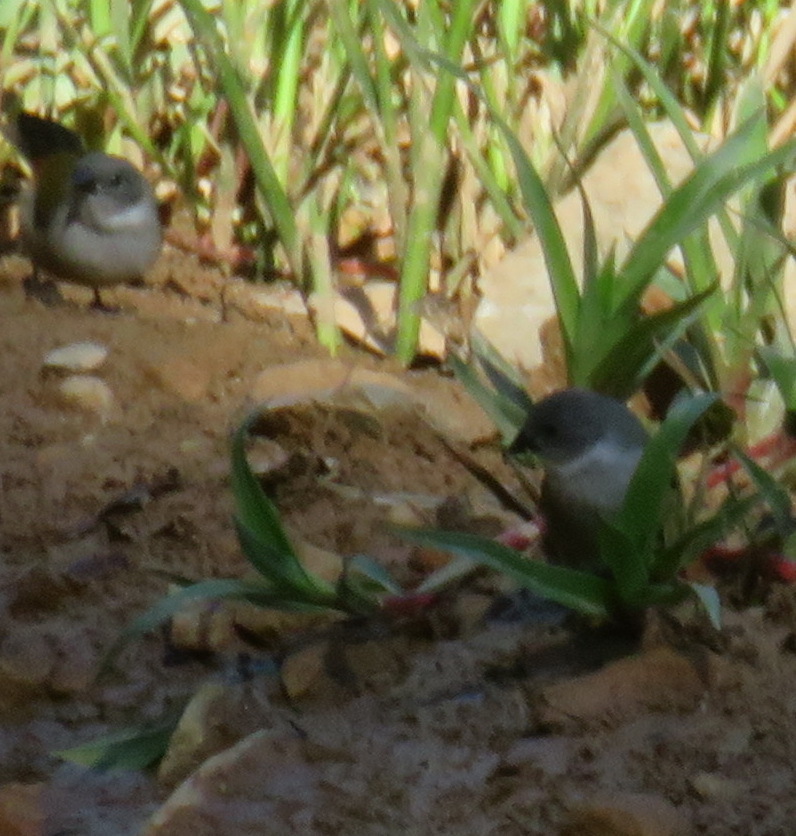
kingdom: Animalia
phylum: Chordata
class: Aves
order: Passeriformes
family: Estrildidae
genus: Coccopygia
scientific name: Coccopygia melanotis
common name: Swee waxbill
